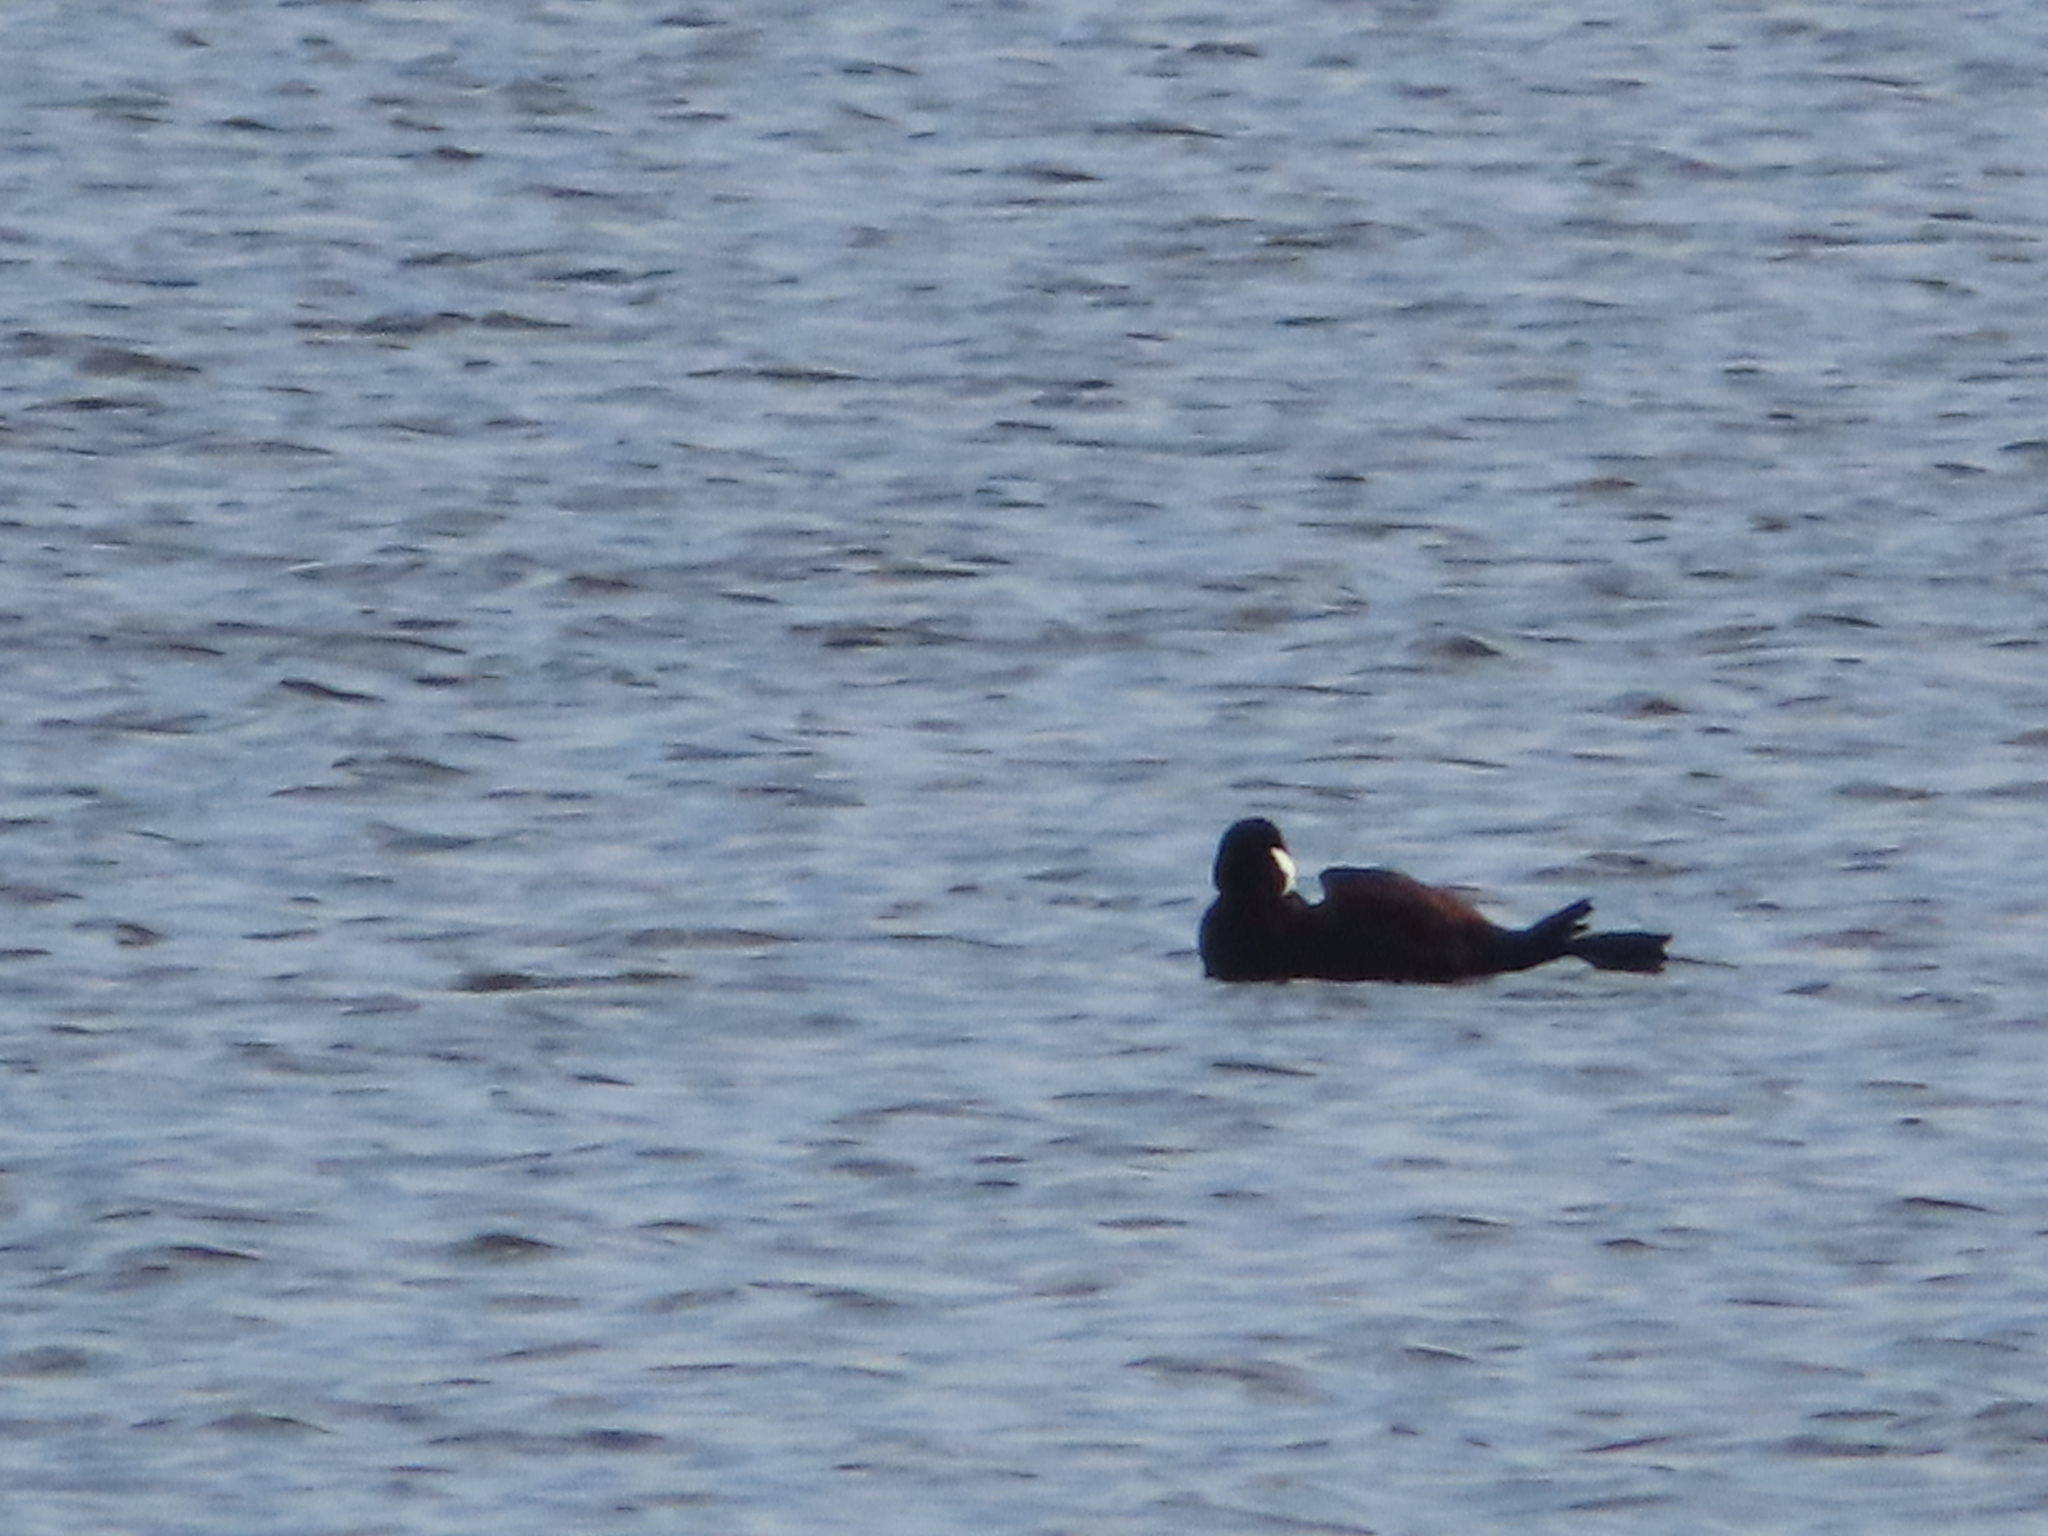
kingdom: Animalia
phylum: Chordata
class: Aves
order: Anseriformes
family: Anatidae
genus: Oxyura
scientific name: Oxyura jamaicensis
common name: Ruddy duck
